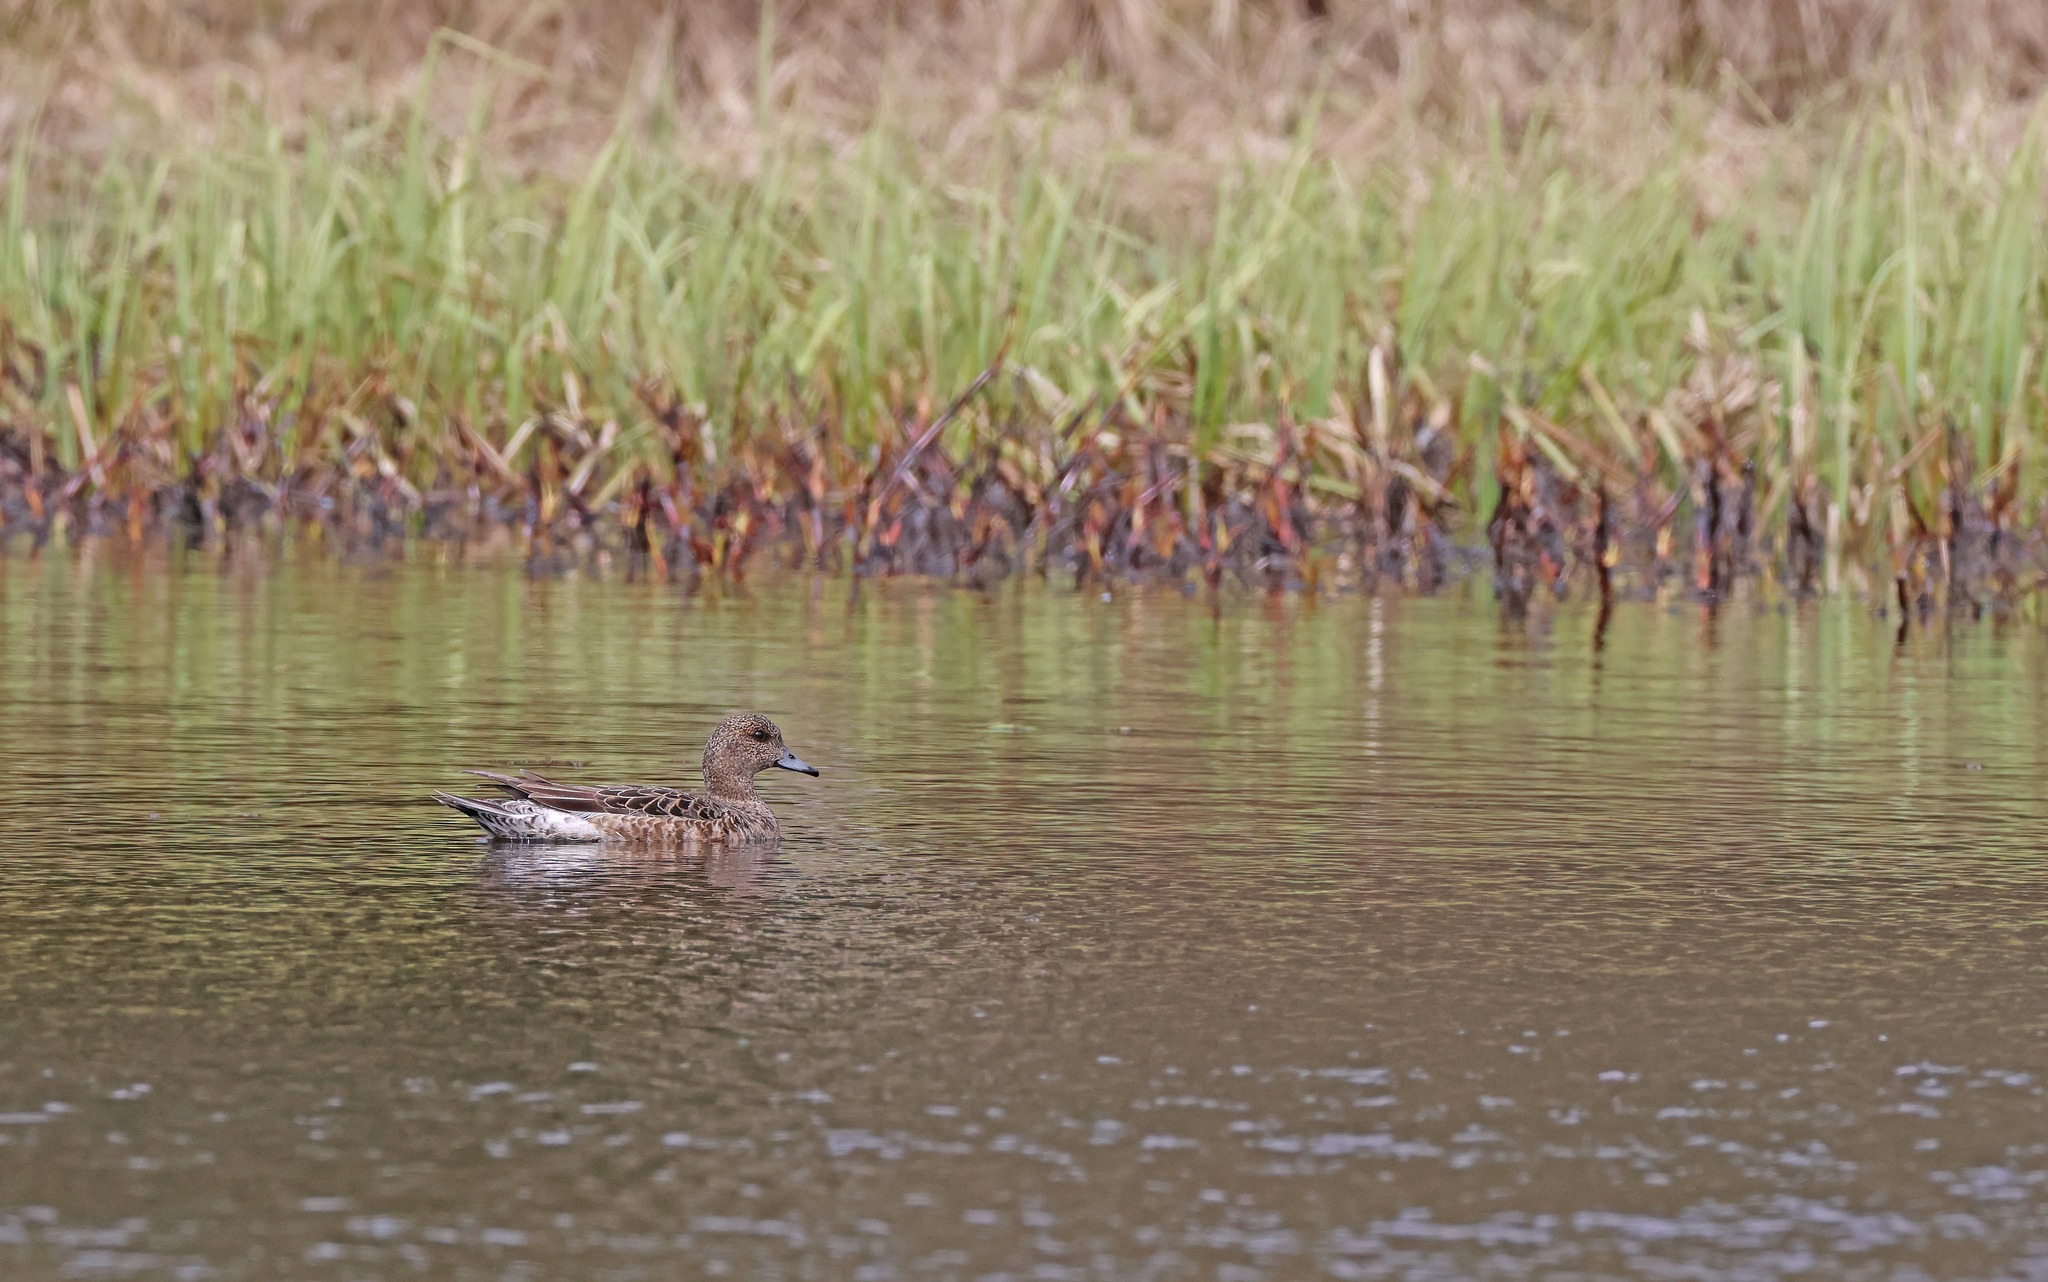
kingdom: Animalia
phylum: Chordata
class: Aves
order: Anseriformes
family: Anatidae
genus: Mareca
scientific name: Mareca penelope
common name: Eurasian wigeon
